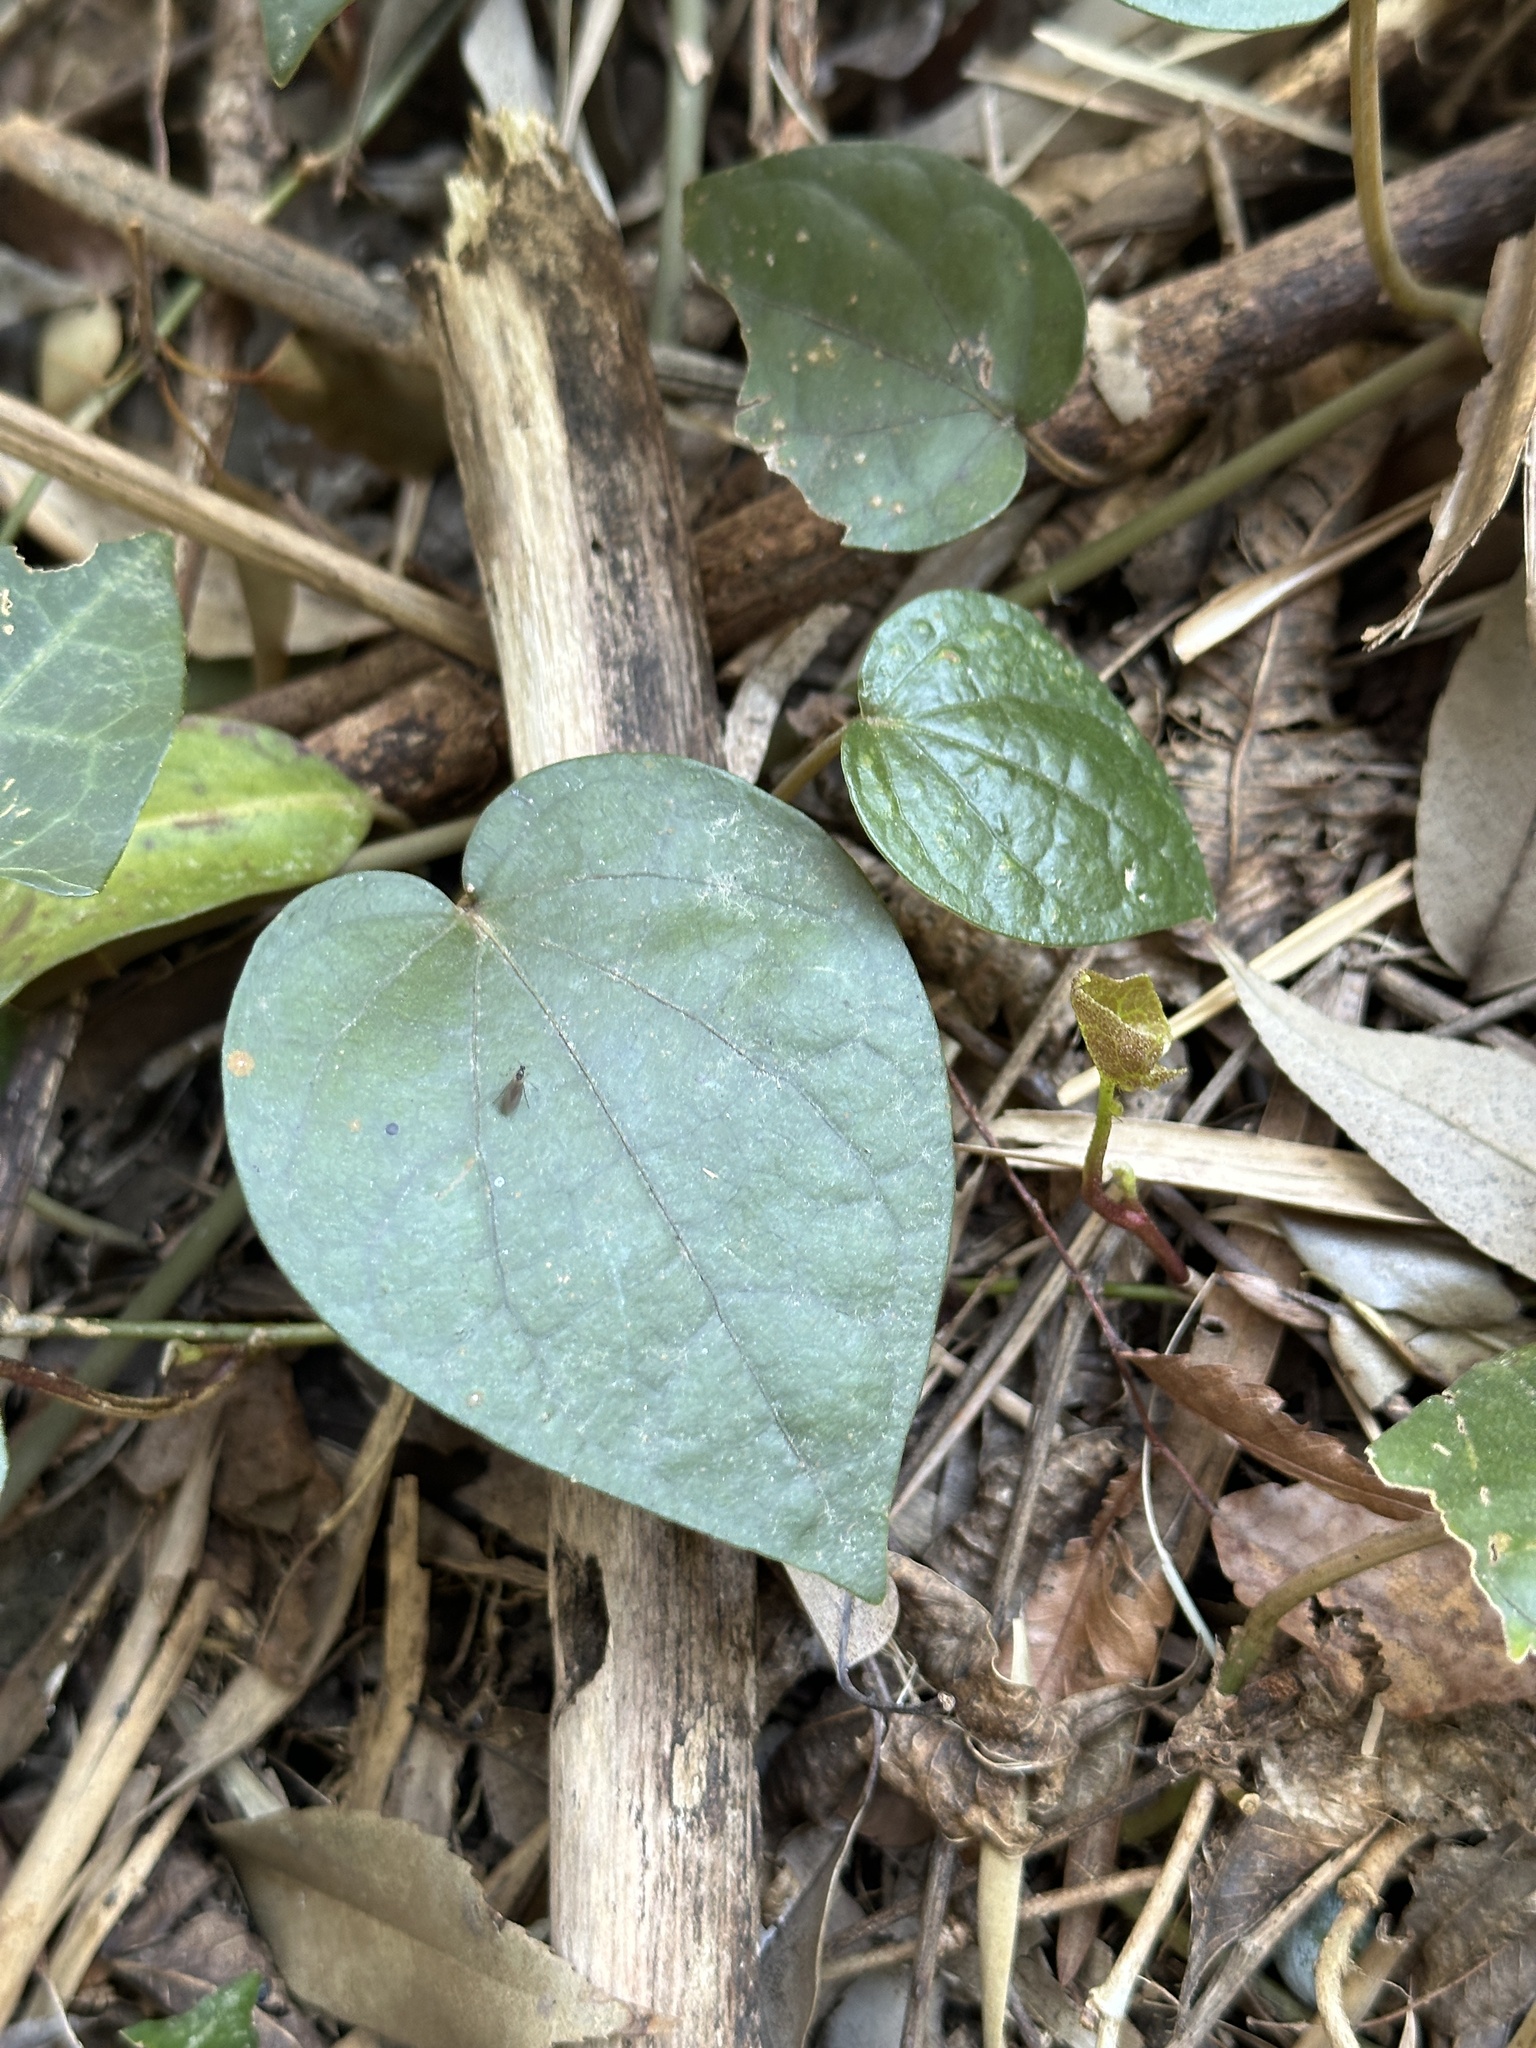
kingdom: Plantae
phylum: Tracheophyta
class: Magnoliopsida
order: Piperales
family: Piperaceae
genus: Piper
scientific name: Piper kadsura
